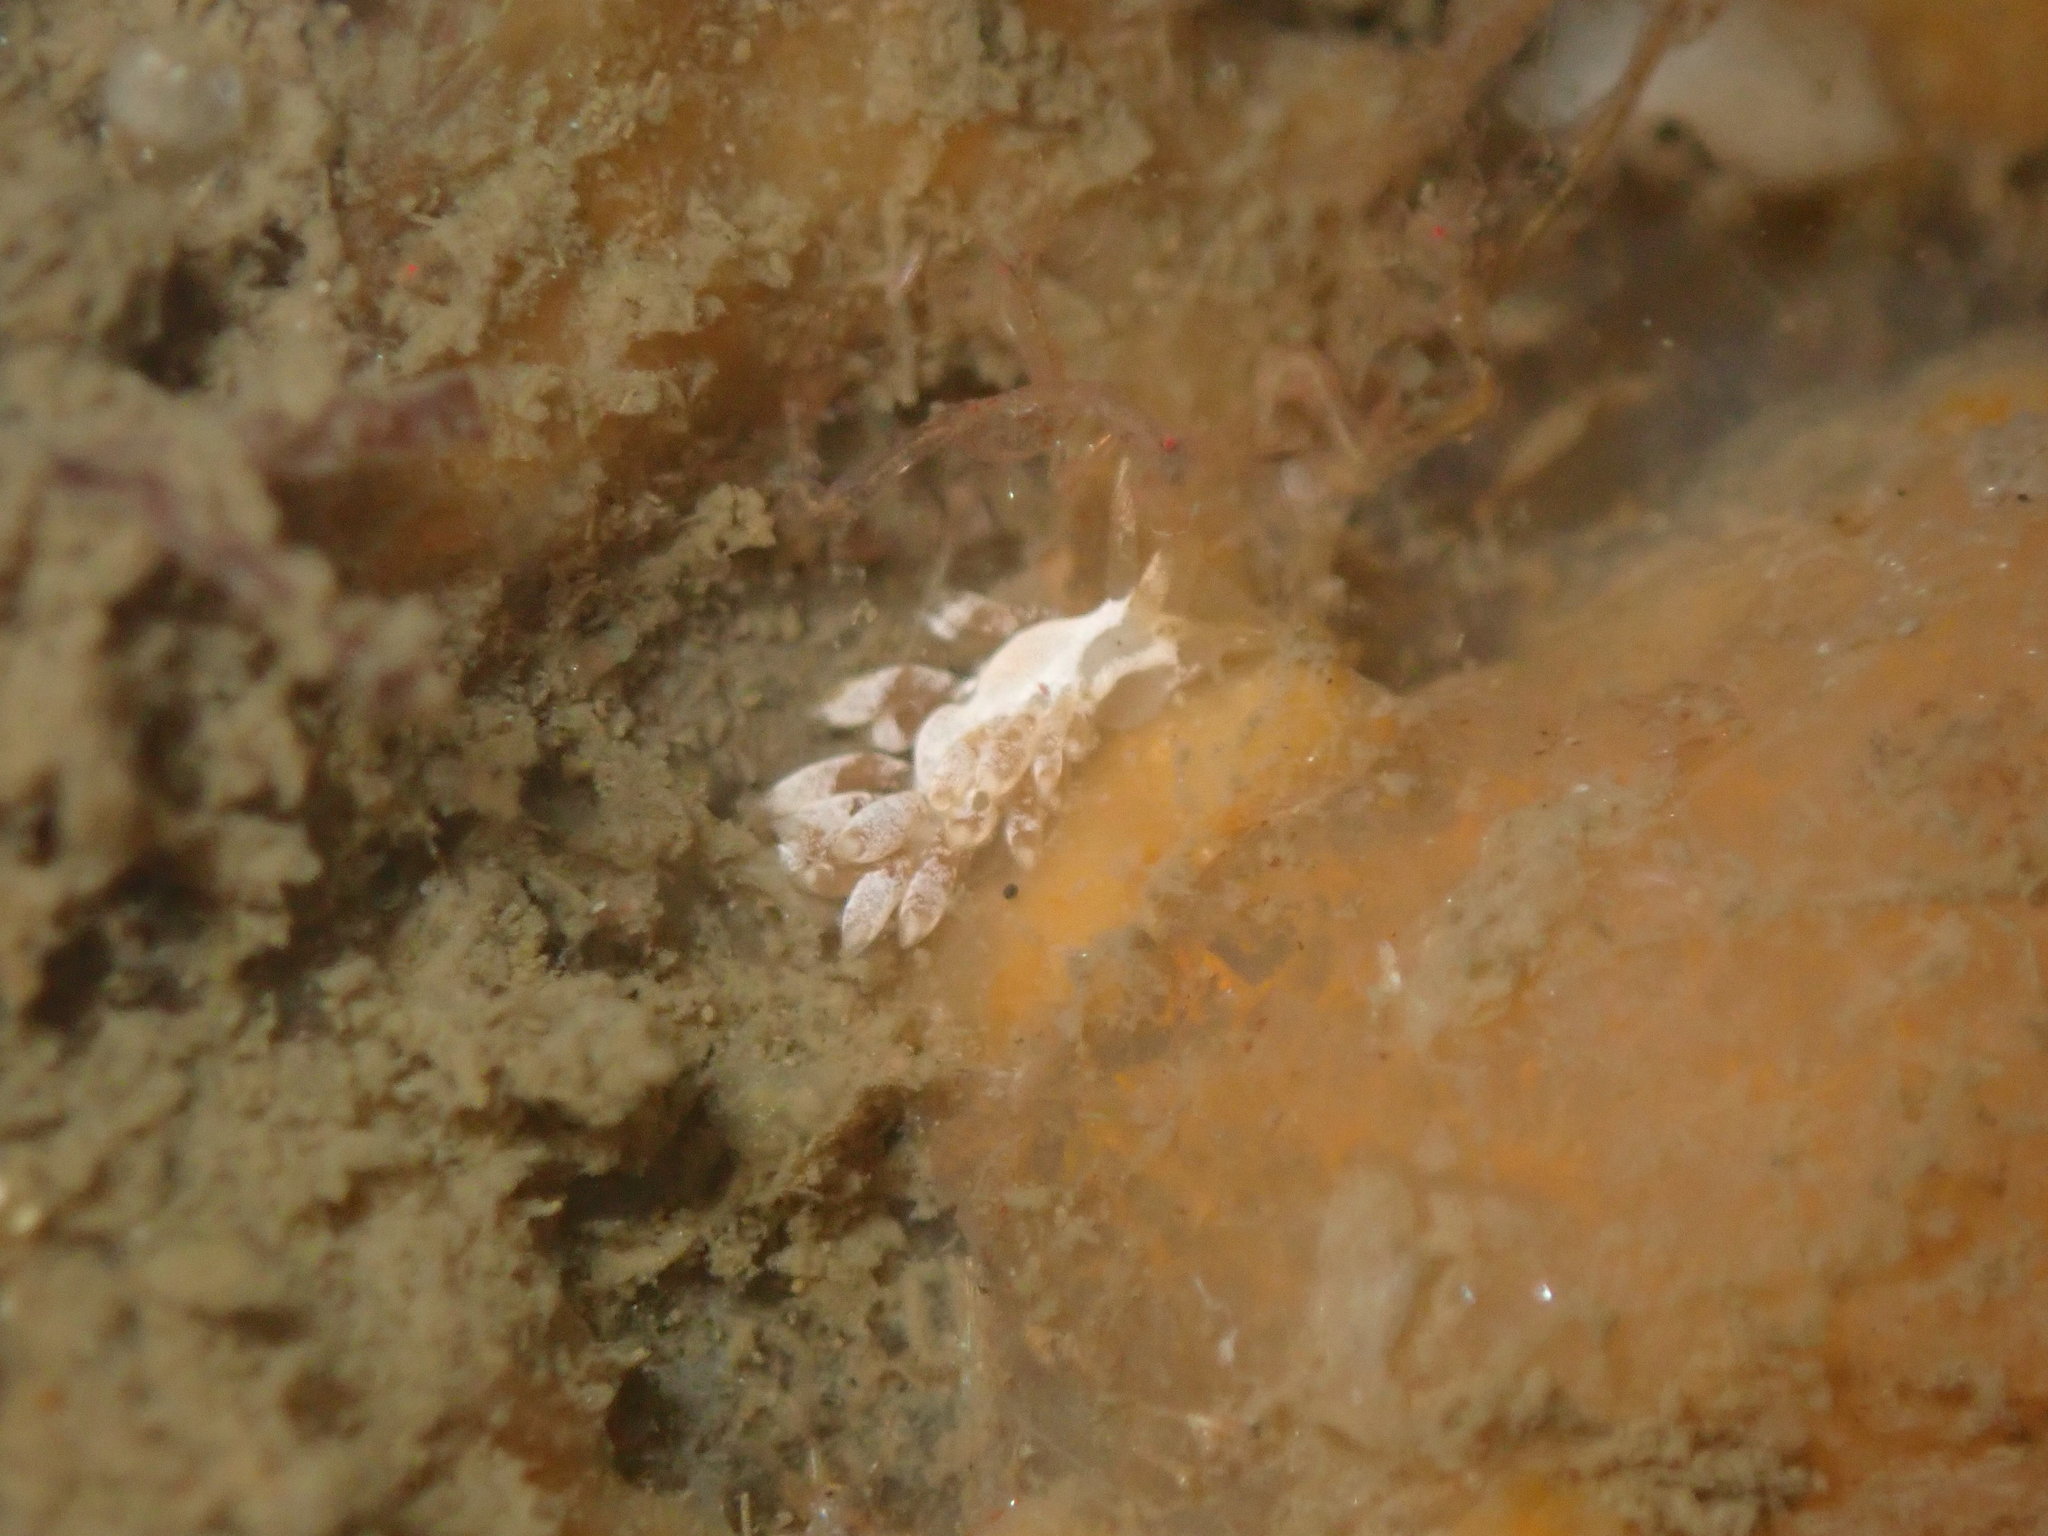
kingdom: Animalia
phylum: Mollusca
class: Gastropoda
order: Nudibranchia
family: Trinchesiidae
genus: Trinchesia
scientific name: Trinchesia albocrusta
